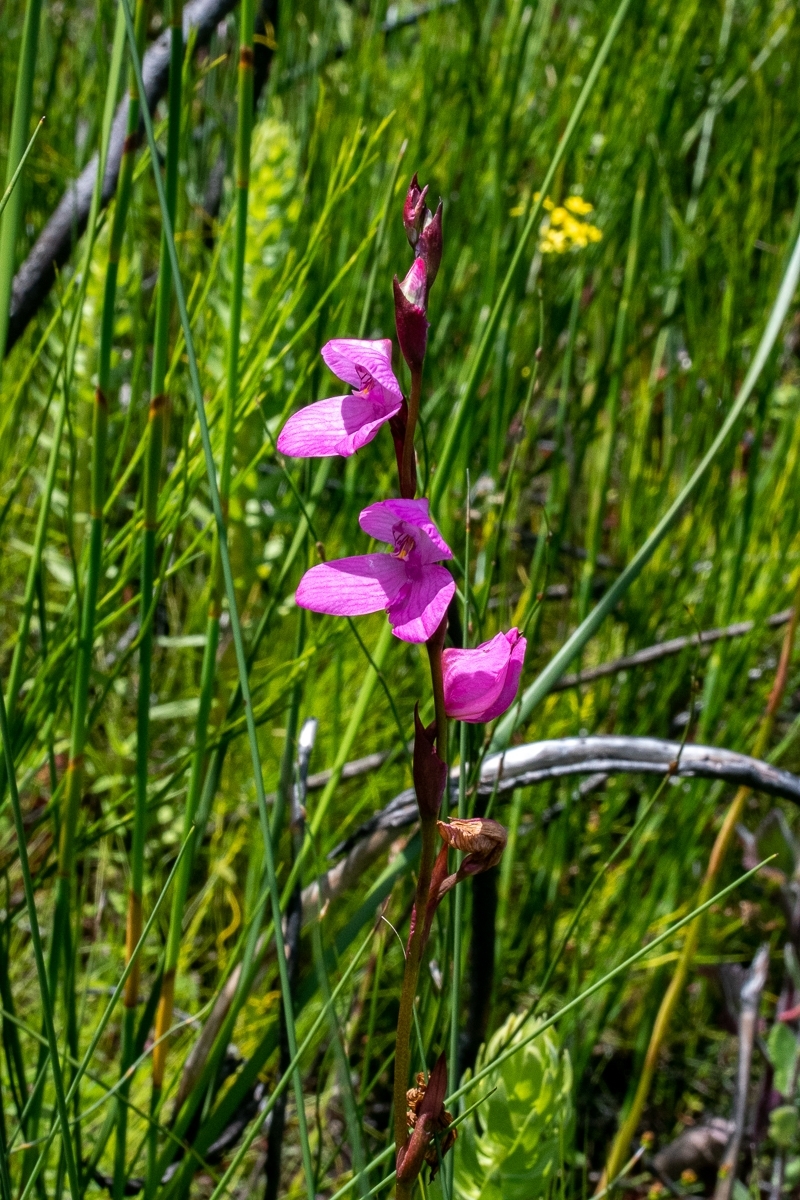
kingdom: Plantae
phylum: Tracheophyta
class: Liliopsida
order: Asparagales
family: Orchidaceae
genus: Disa
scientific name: Disa racemosa
